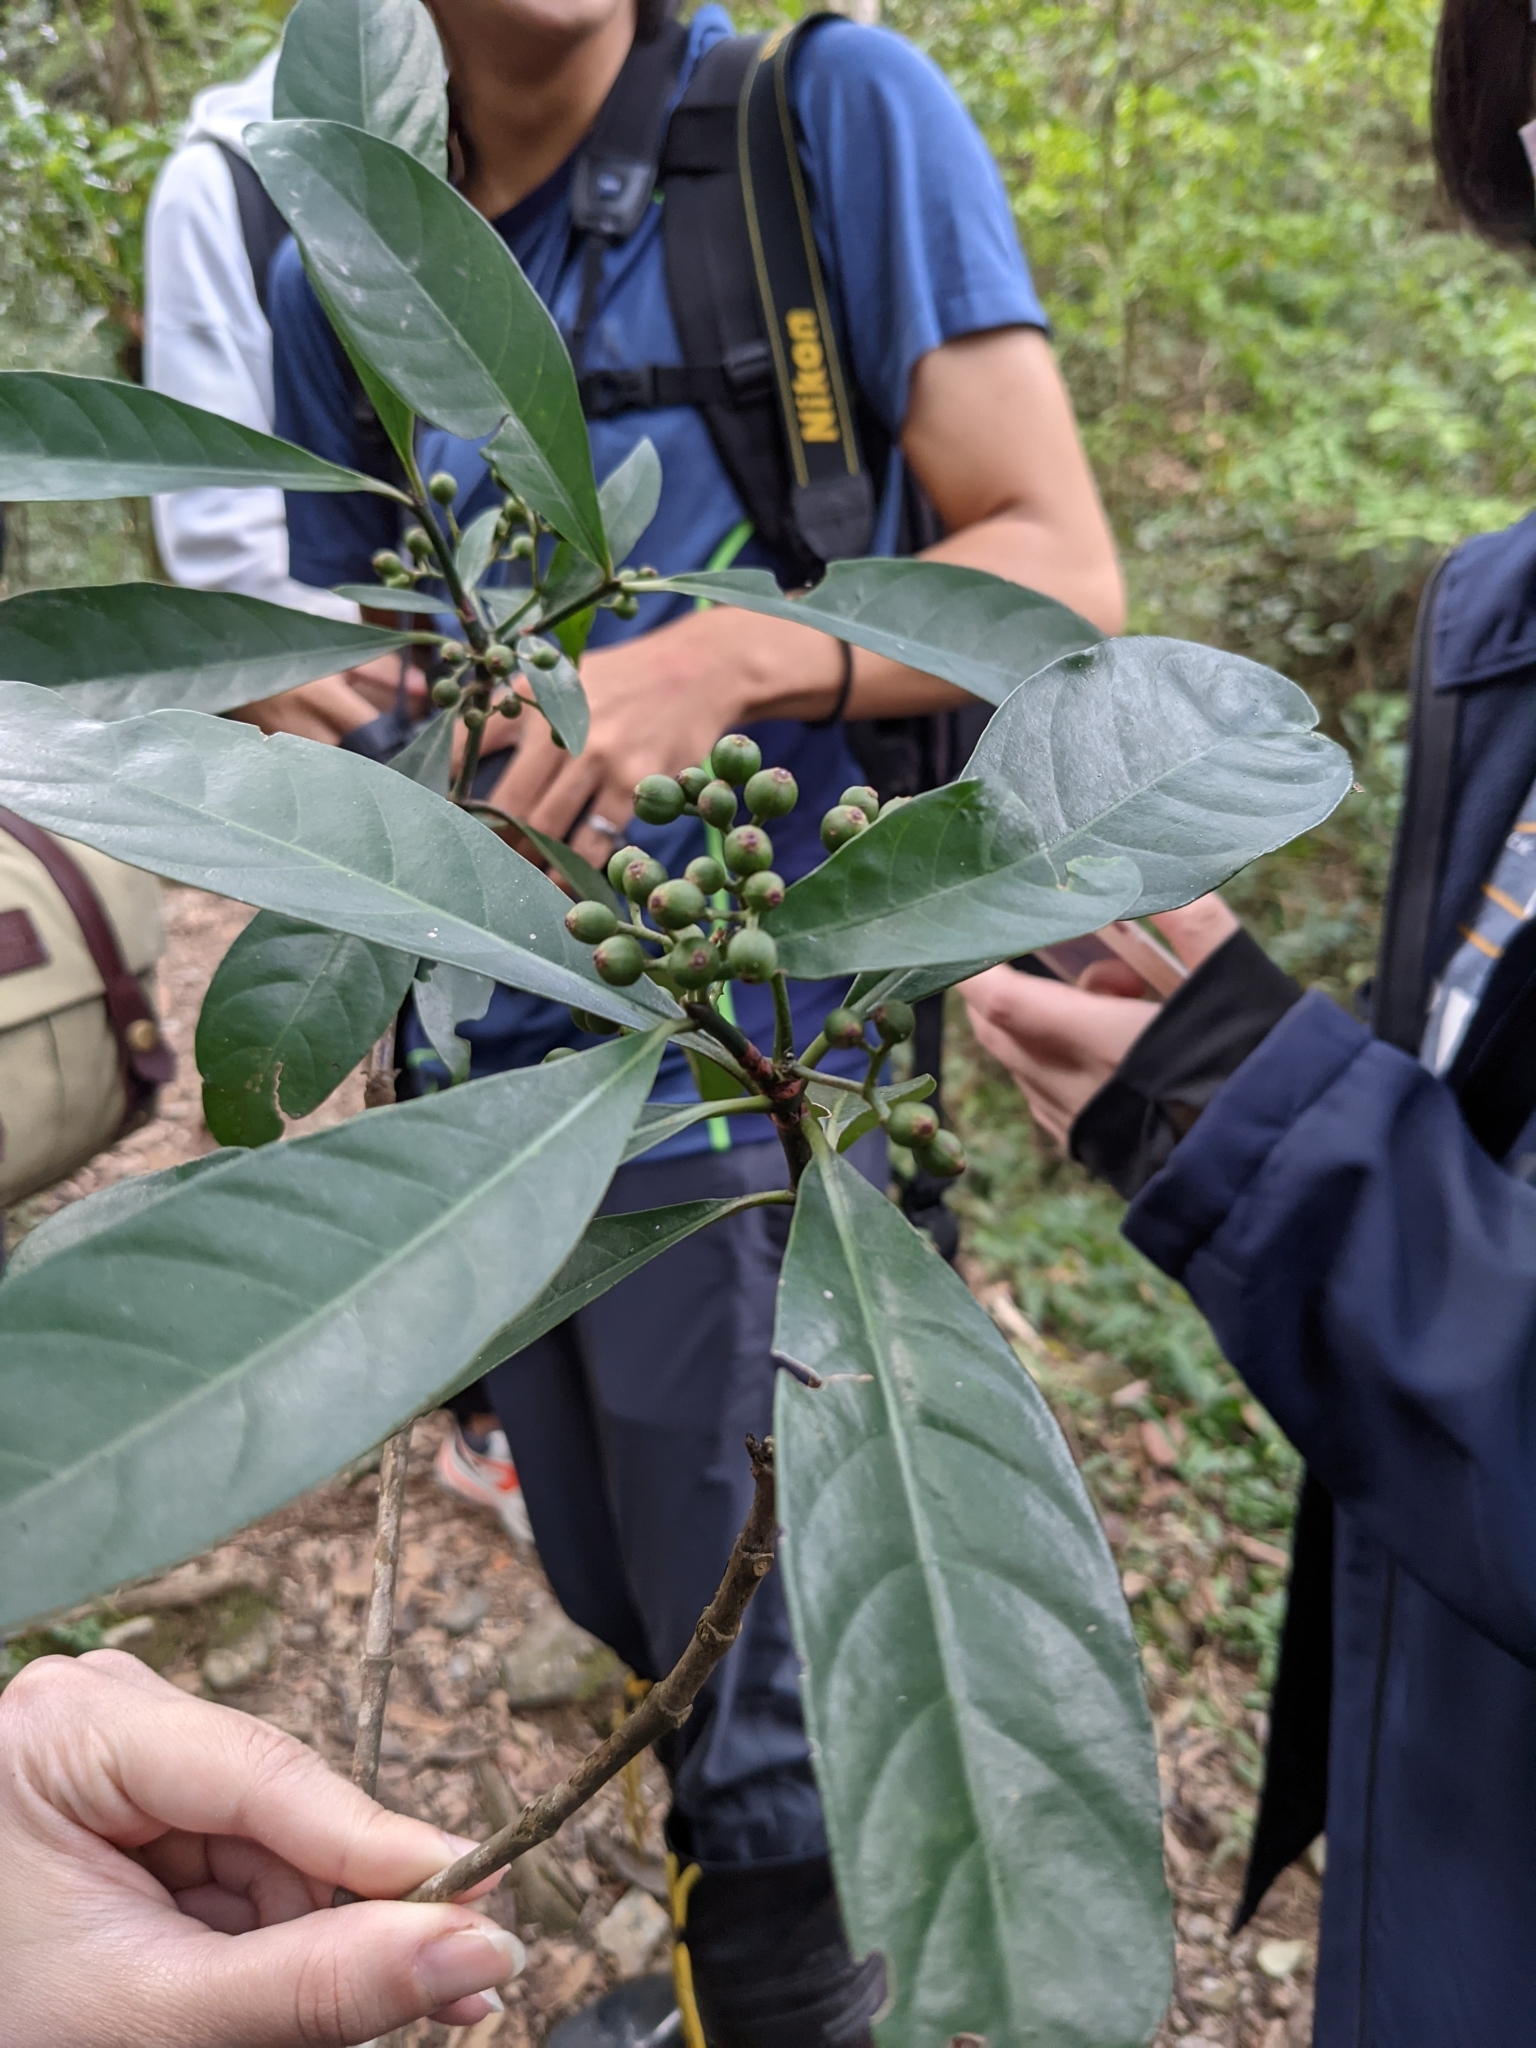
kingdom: Plantae
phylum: Tracheophyta
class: Magnoliopsida
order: Gentianales
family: Rubiaceae
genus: Psychotria
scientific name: Psychotria asiatica
